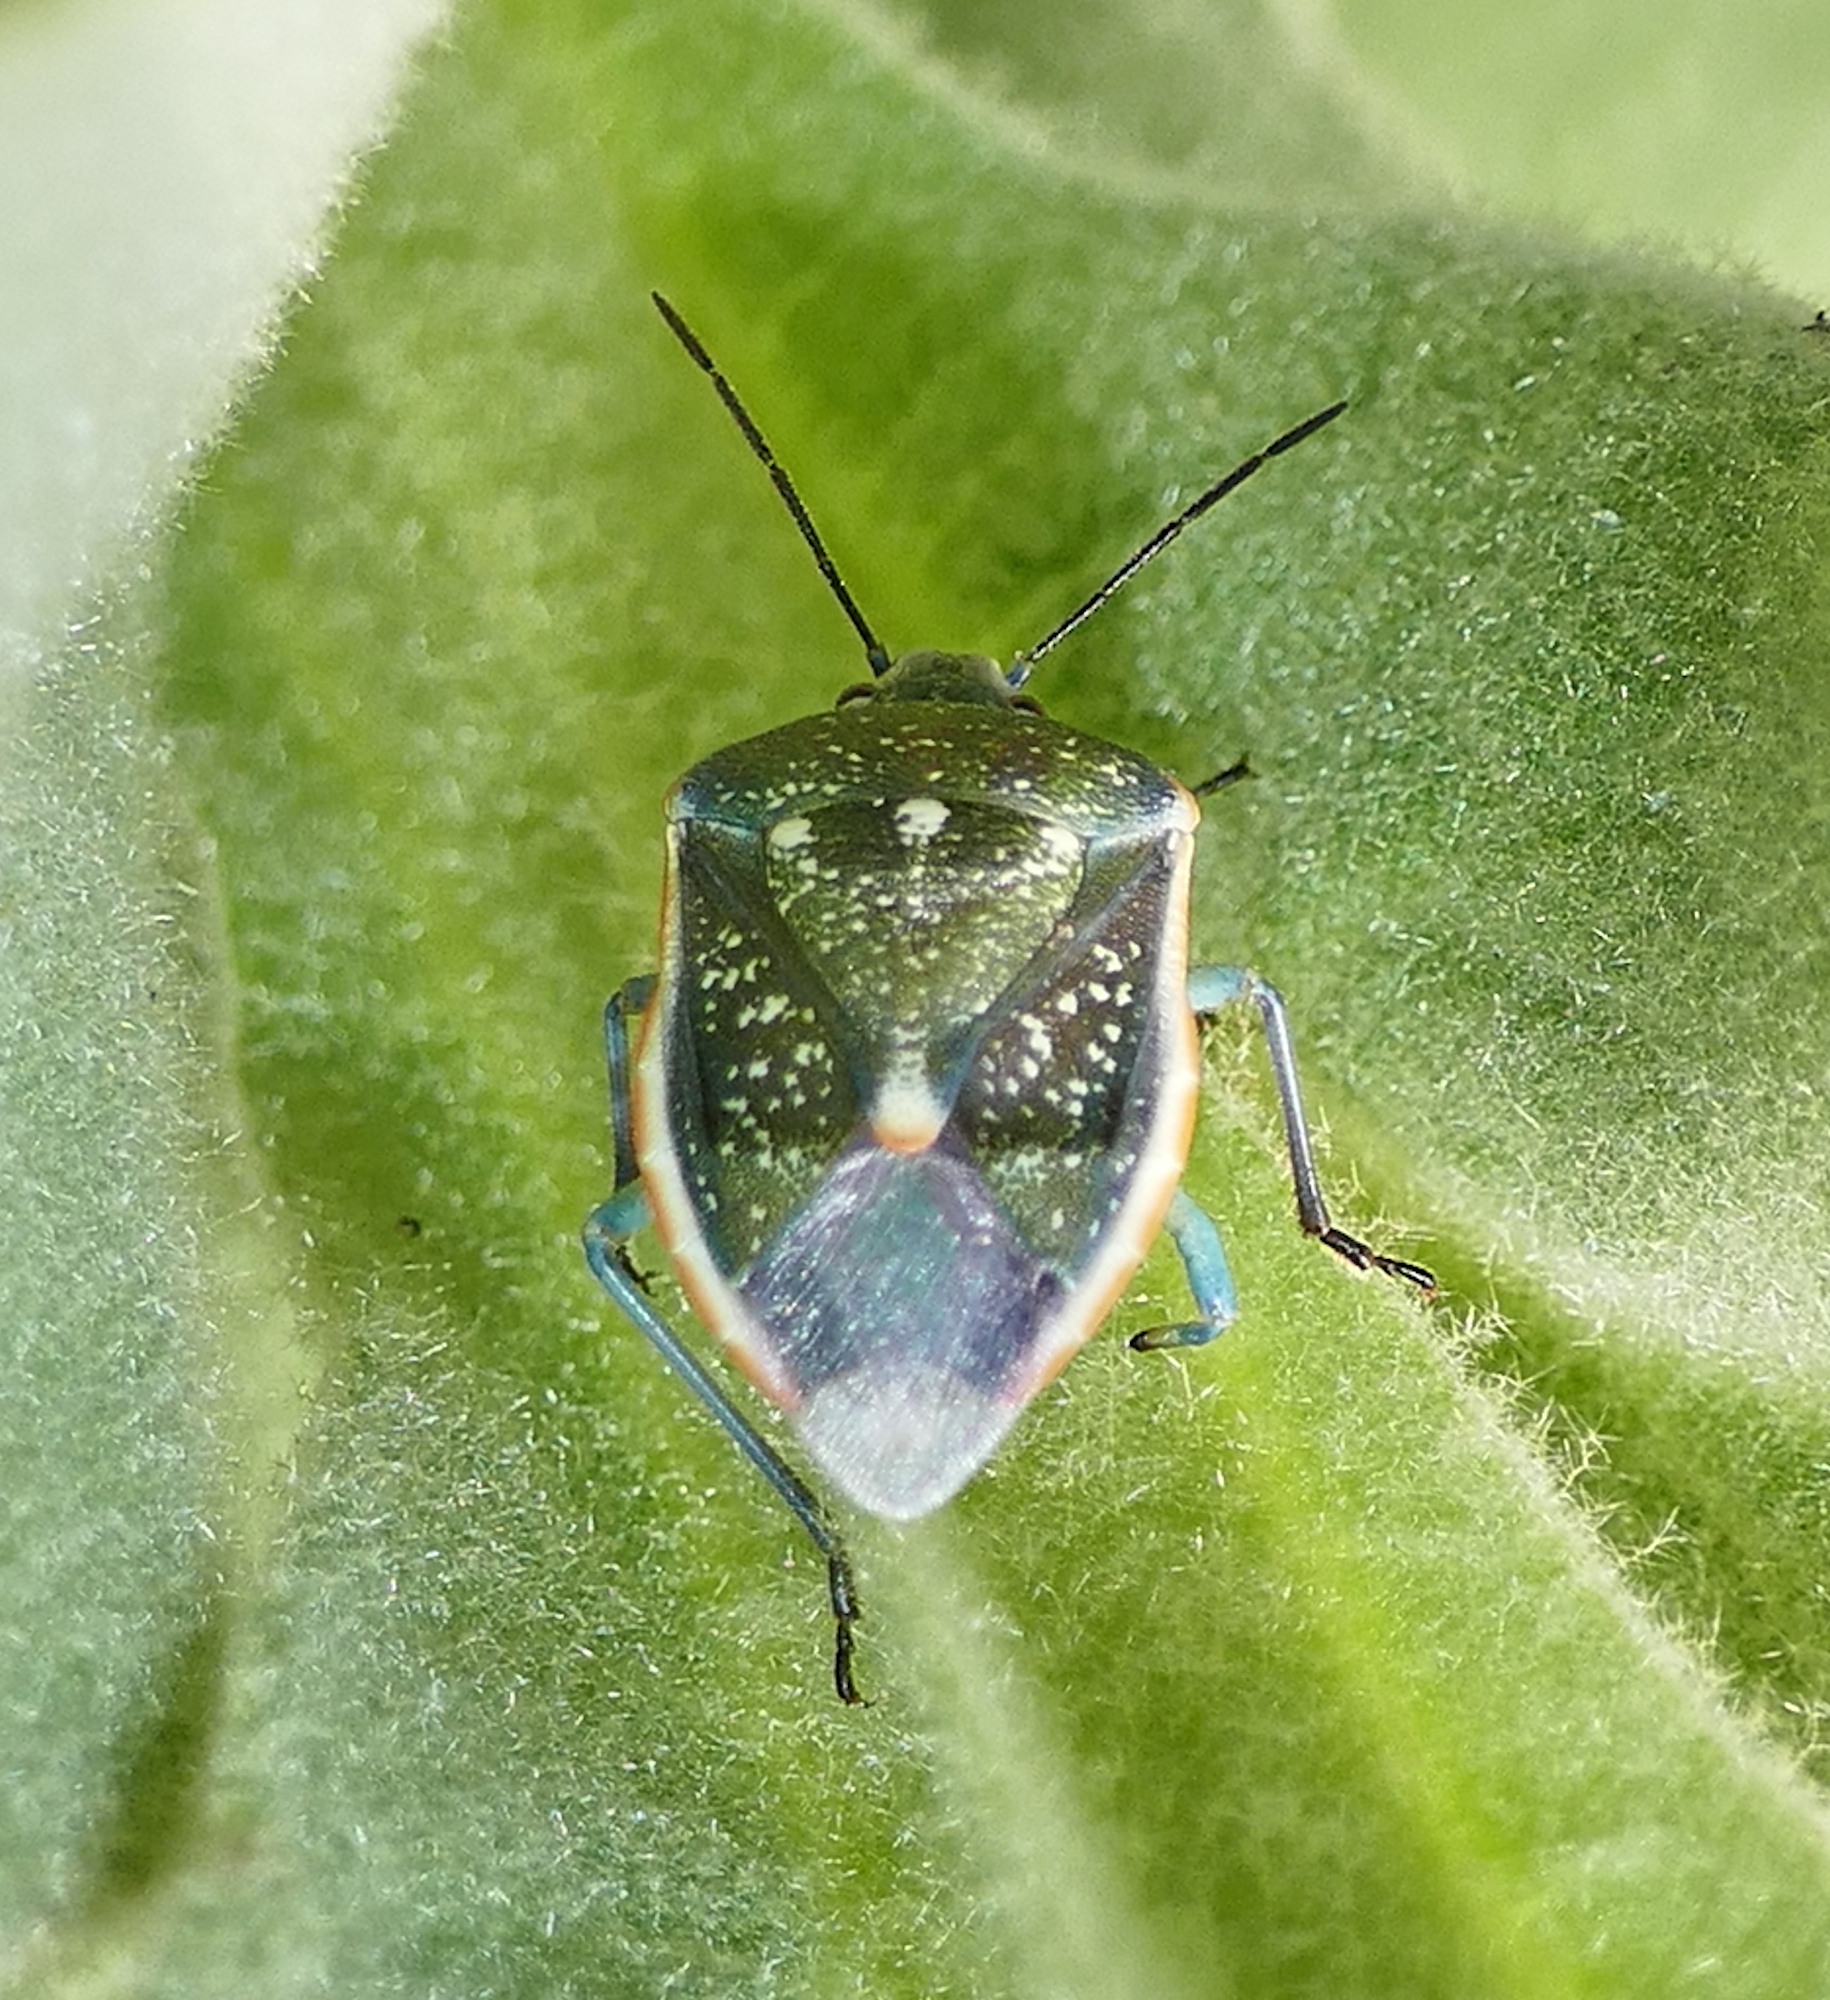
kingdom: Animalia
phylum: Arthropoda
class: Insecta
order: Hemiptera
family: Pentatomidae
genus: Chlorochroa
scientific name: Chlorochroa sayi
